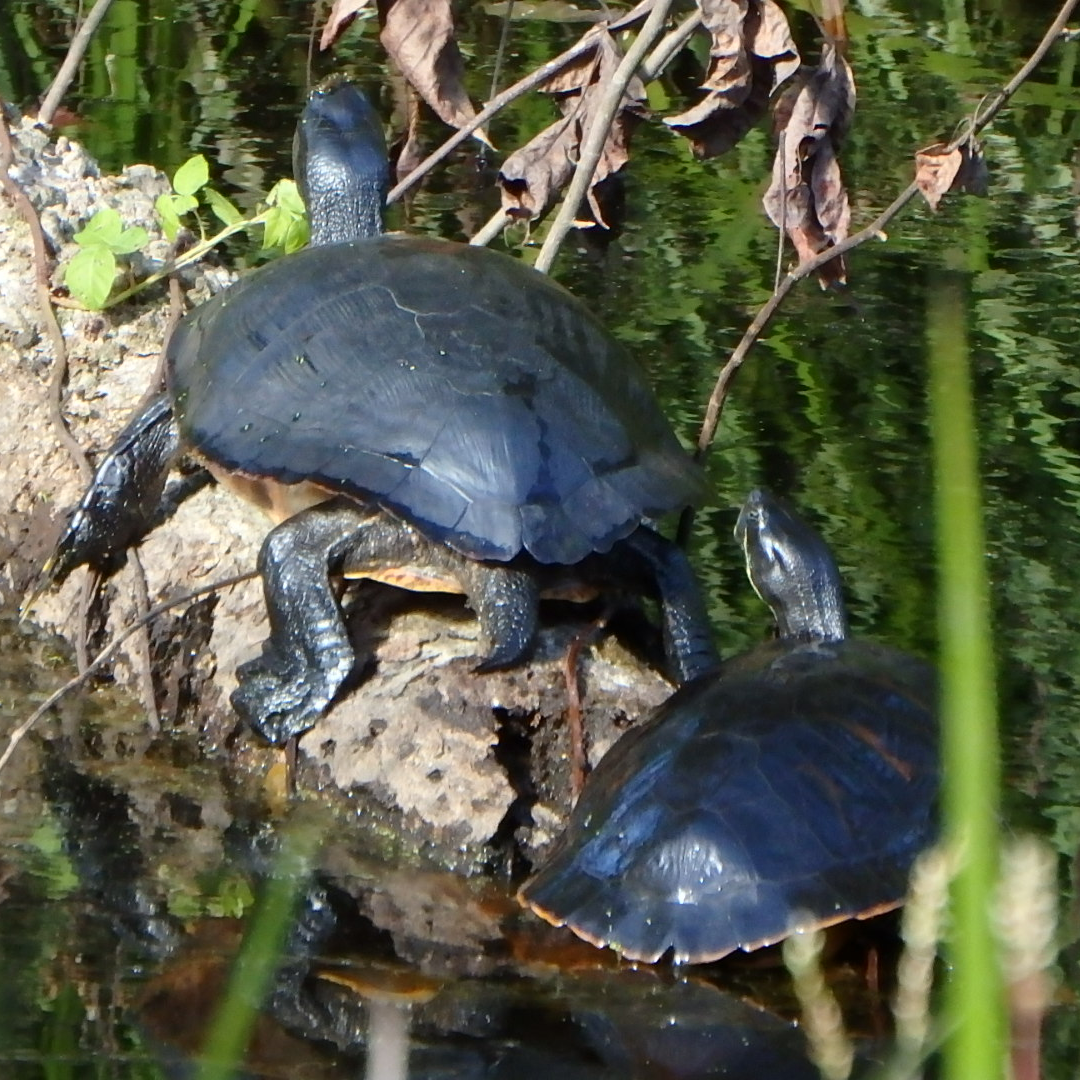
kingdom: Animalia
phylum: Chordata
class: Testudines
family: Emydidae
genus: Pseudemys
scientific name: Pseudemys rubriventris
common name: American red-bellied turtle
